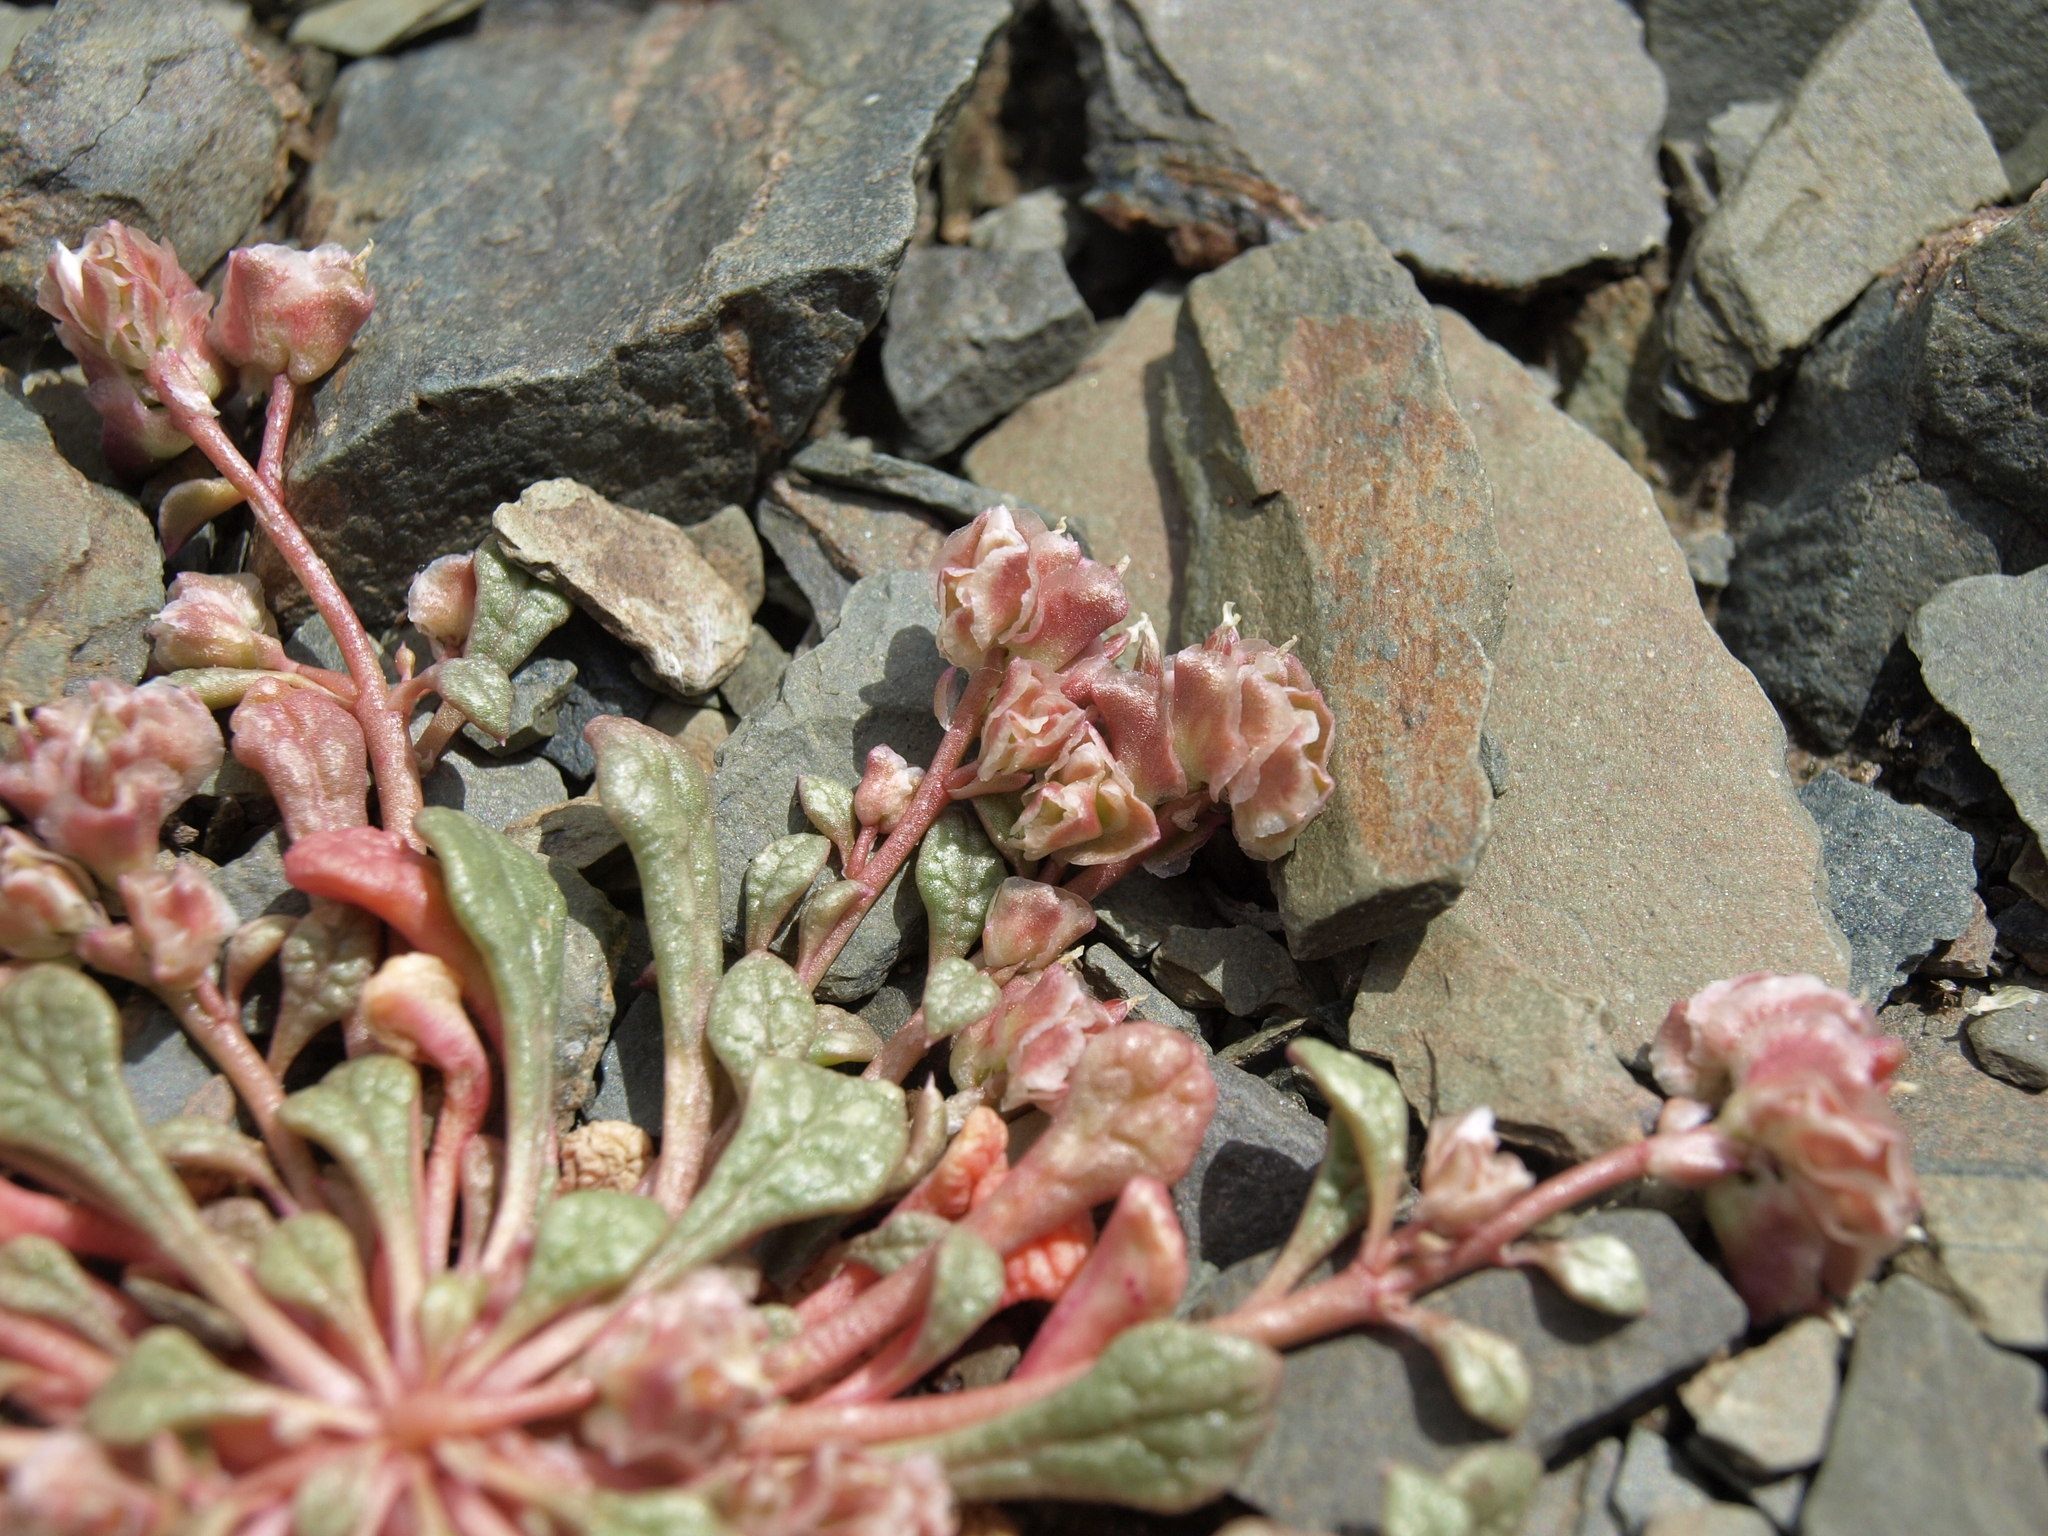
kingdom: Plantae
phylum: Tracheophyta
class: Magnoliopsida
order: Caryophyllales
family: Montiaceae
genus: Calyptridium
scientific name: Calyptridium nevadense
